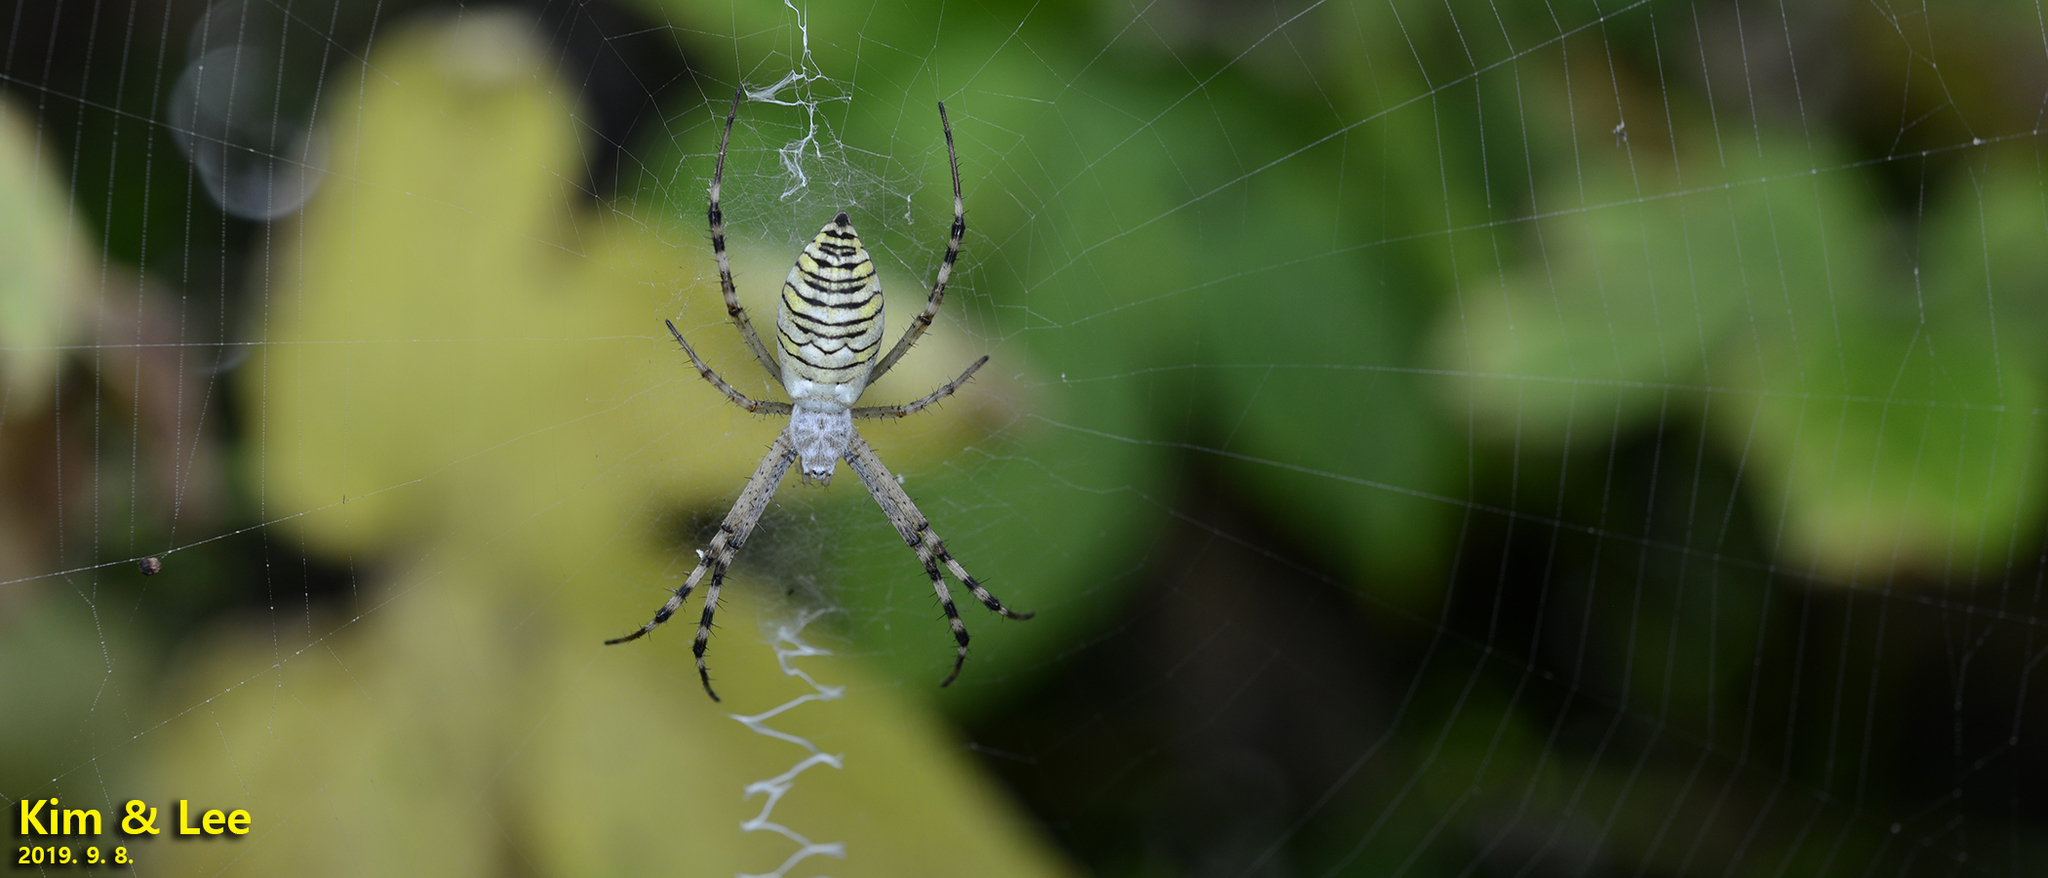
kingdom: Animalia
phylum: Arthropoda
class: Arachnida
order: Araneae
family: Araneidae
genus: Argiope
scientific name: Argiope bruennichi
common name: Wasp spider
